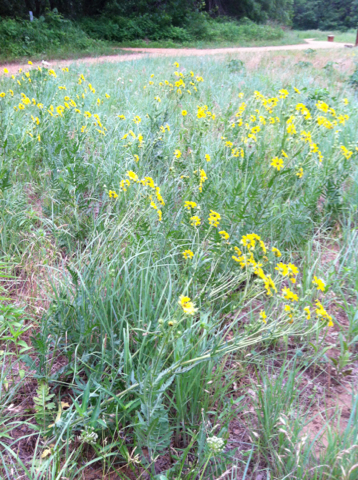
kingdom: Plantae
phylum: Tracheophyta
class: Magnoliopsida
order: Asterales
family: Asteraceae
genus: Engelmannia
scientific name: Engelmannia peristenia
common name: Engelmann's daisy
